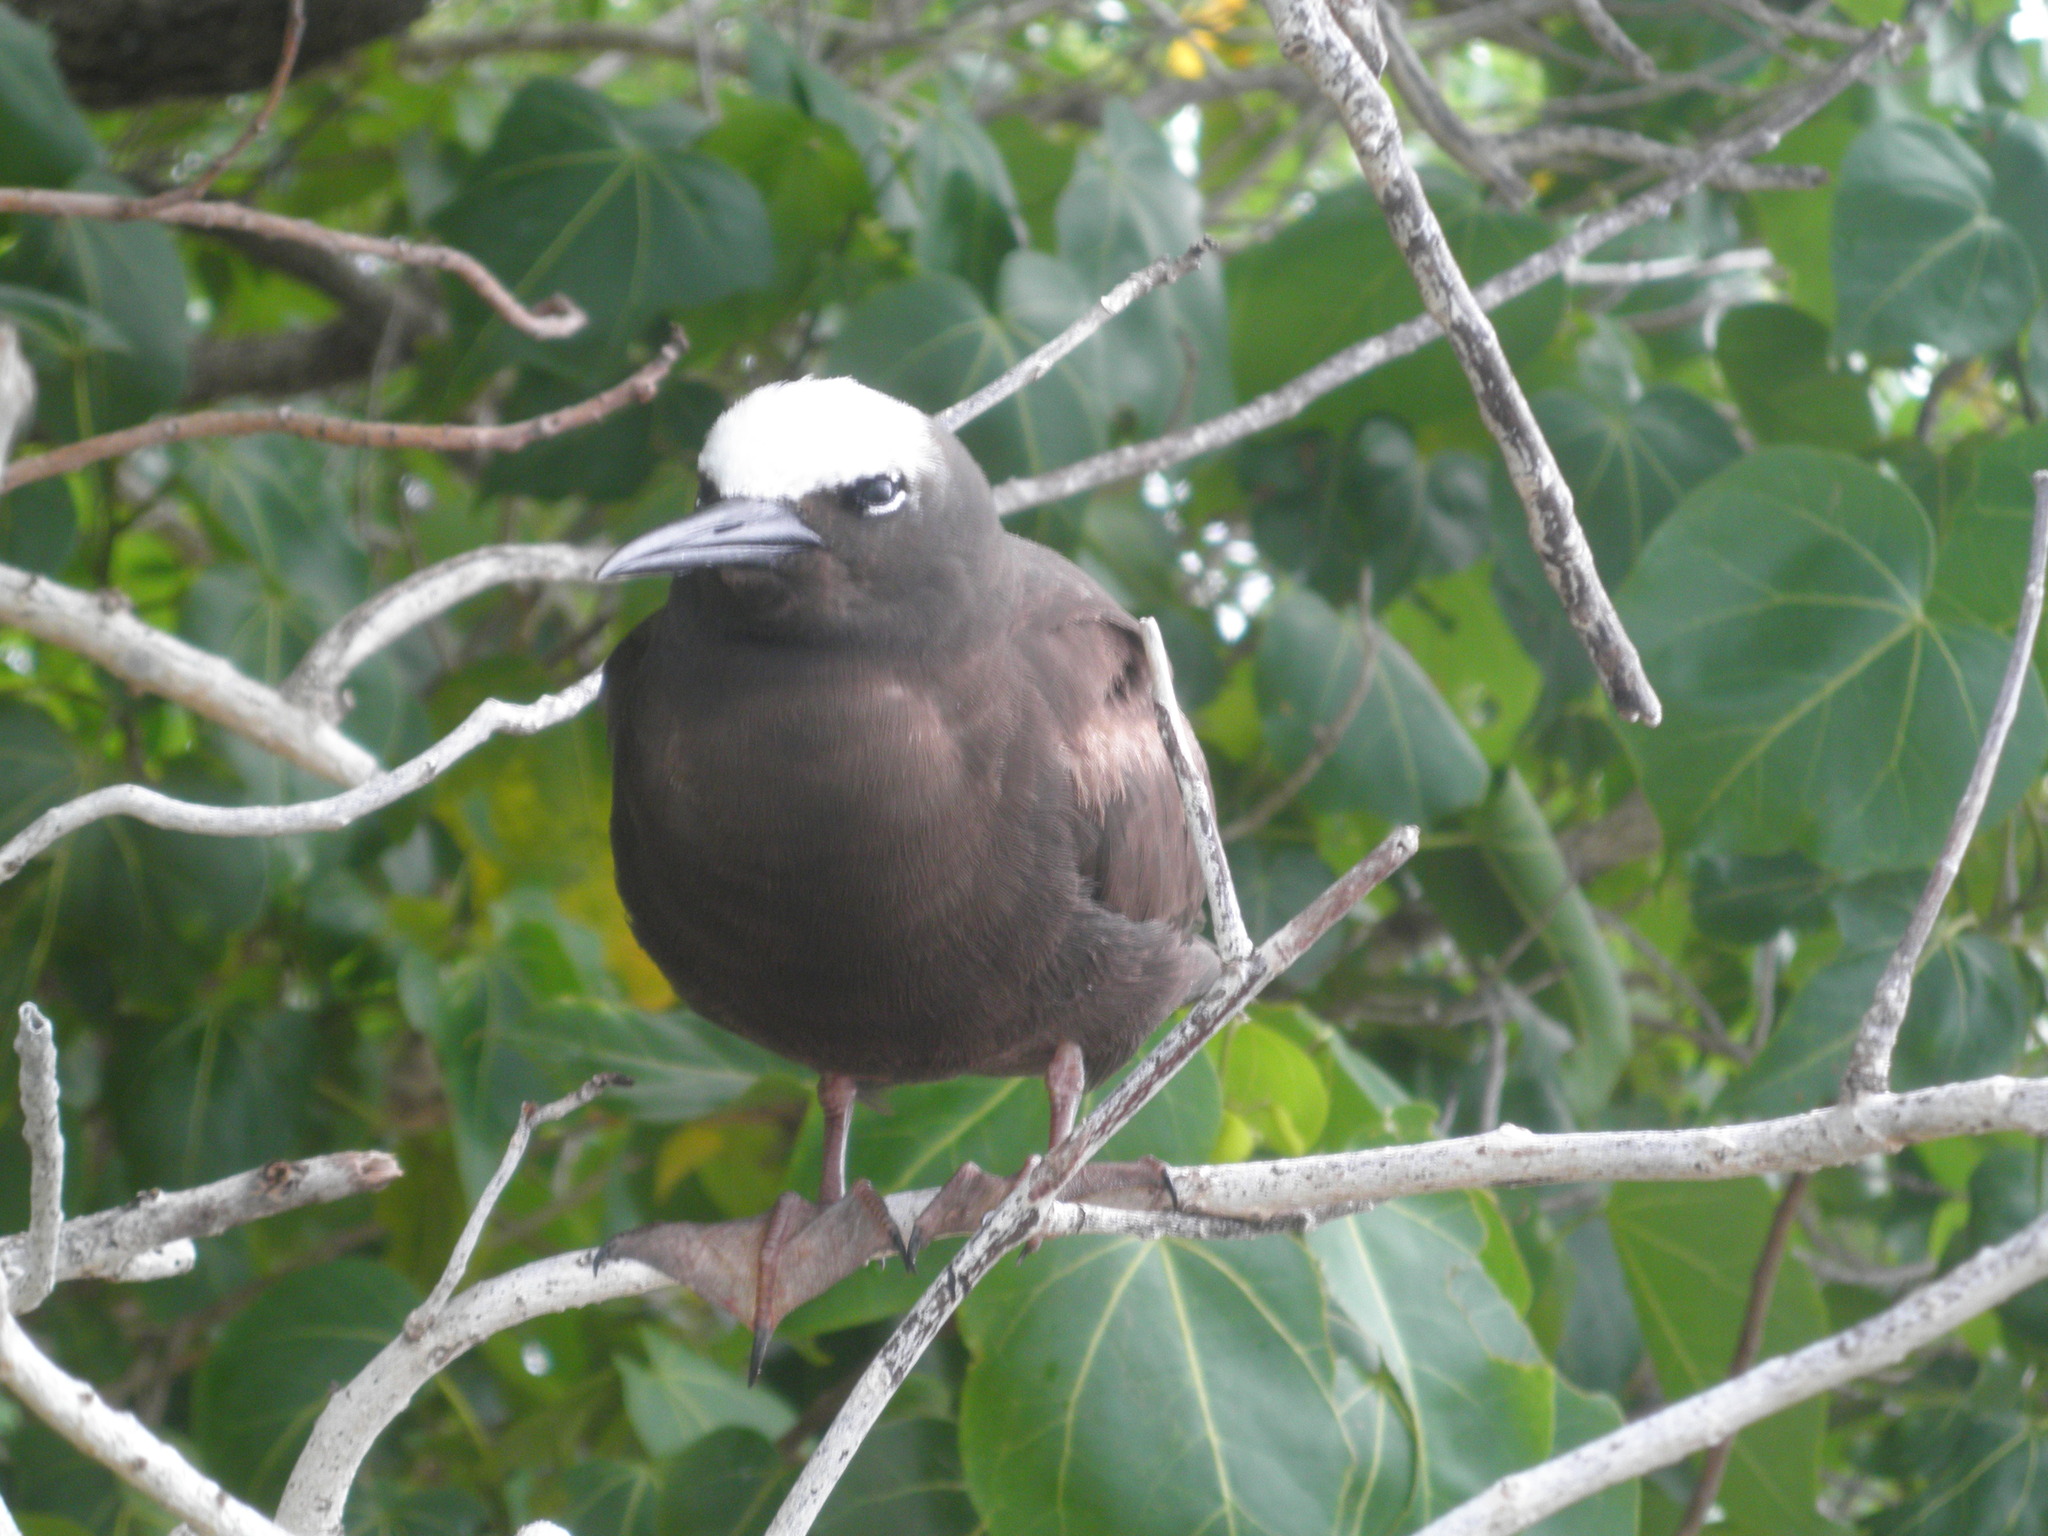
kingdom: Animalia
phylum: Chordata
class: Aves
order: Charadriiformes
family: Laridae
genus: Anous
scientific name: Anous minutus
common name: Black noddy
